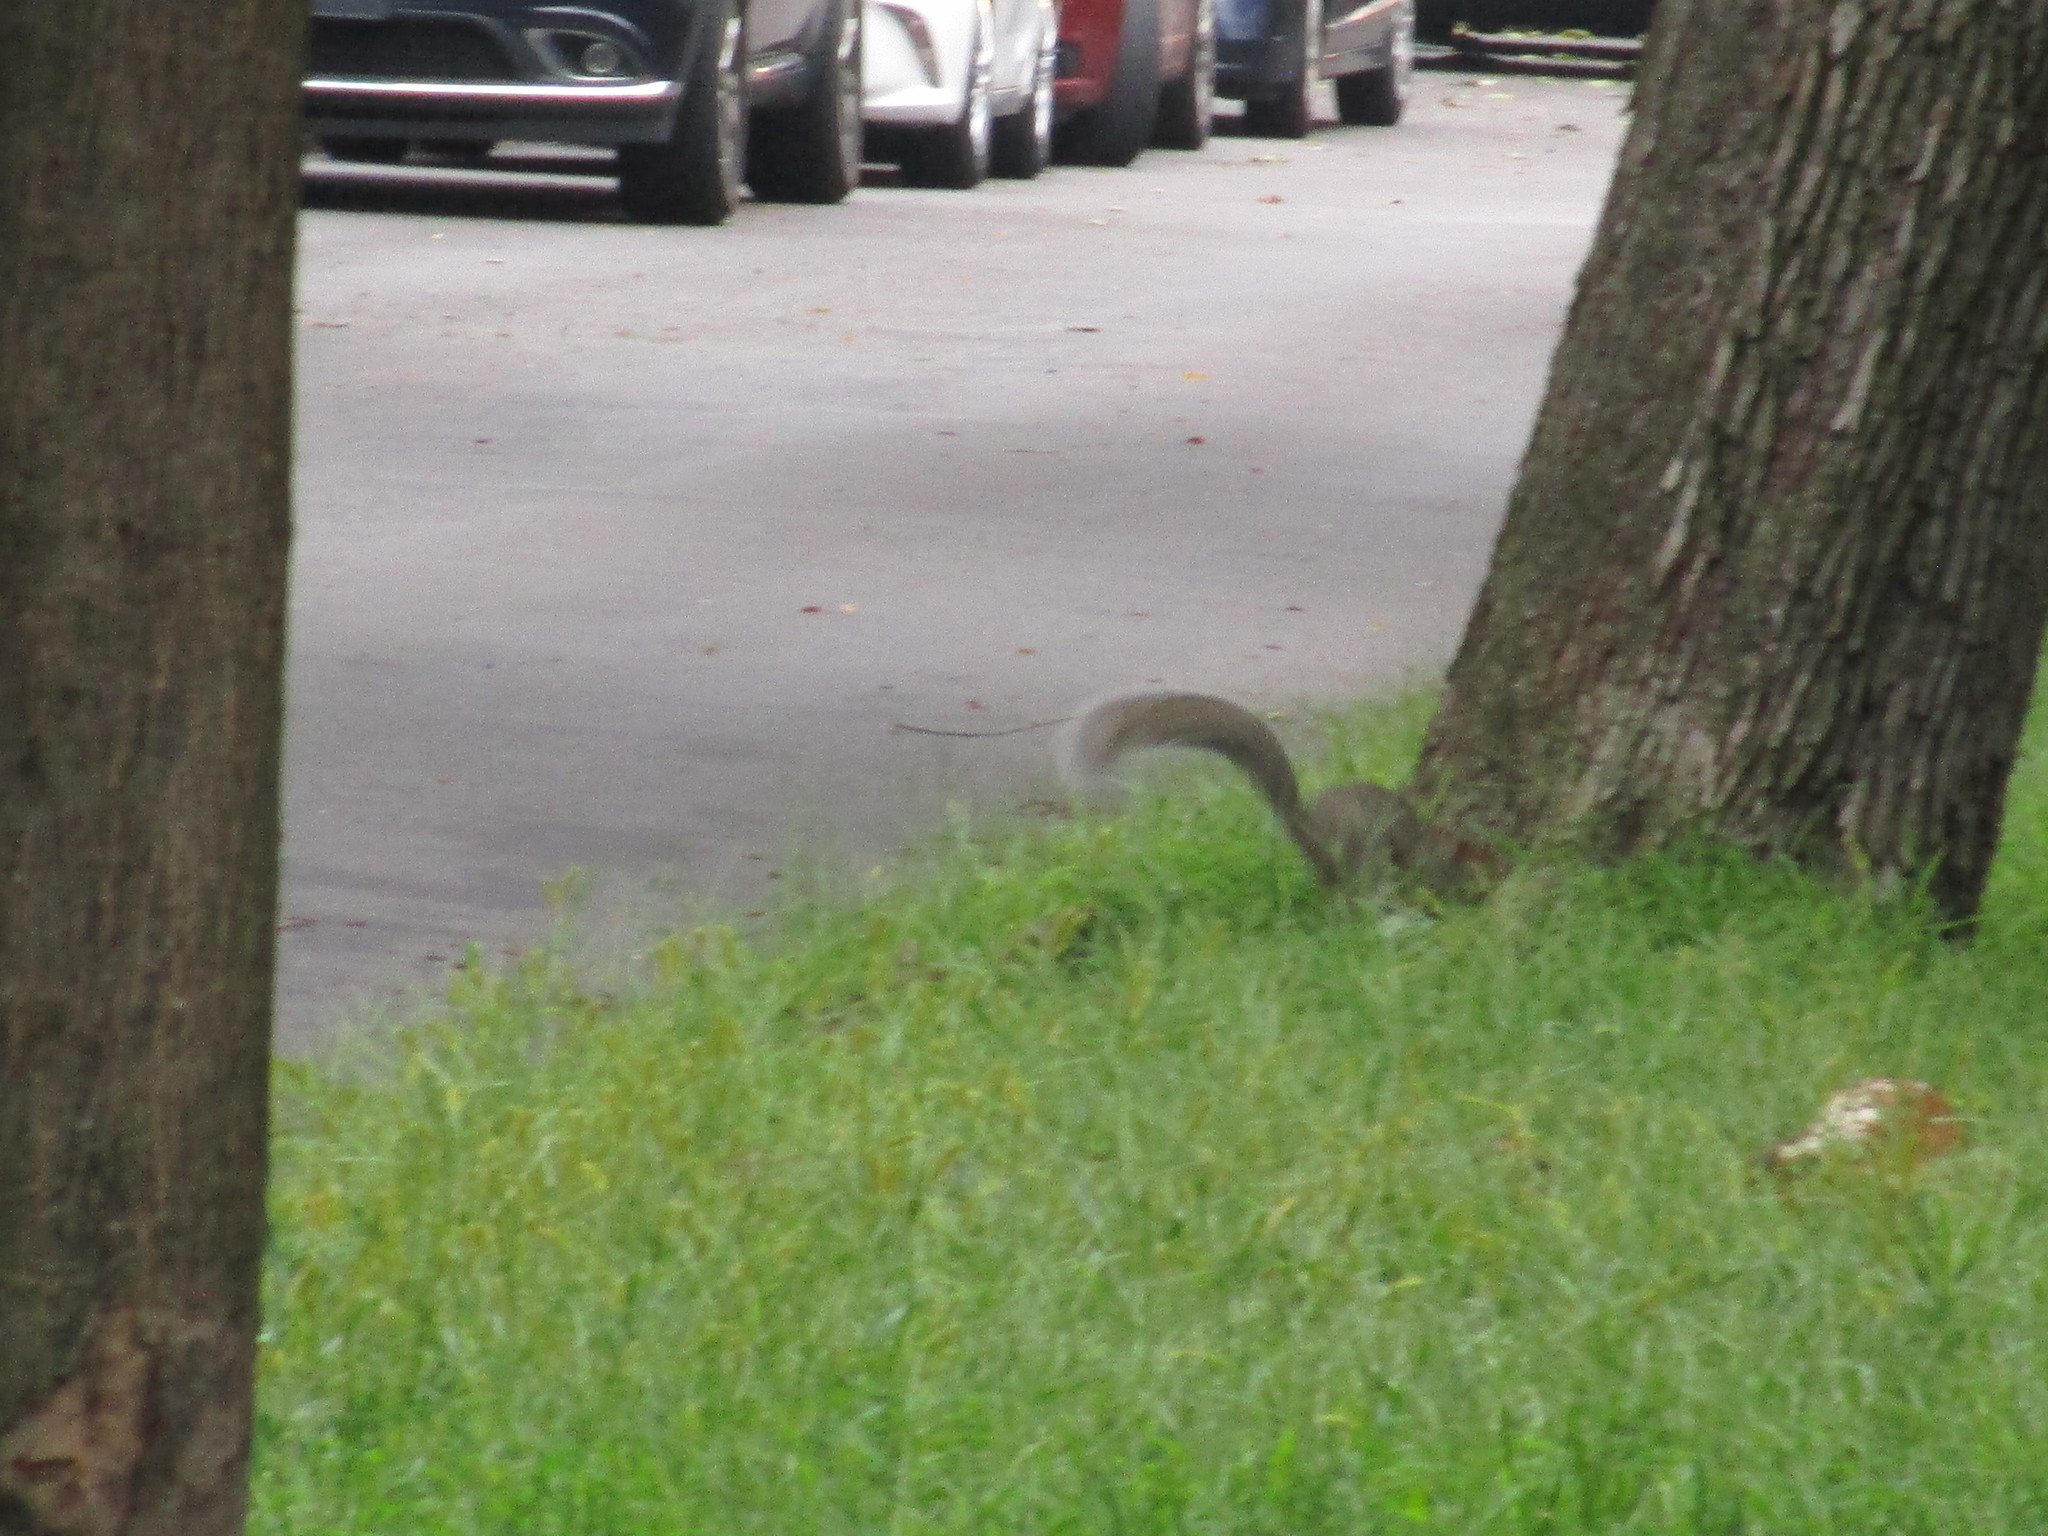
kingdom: Animalia
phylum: Chordata
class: Mammalia
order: Rodentia
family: Sciuridae
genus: Sciurus
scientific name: Sciurus carolinensis
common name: Eastern gray squirrel
